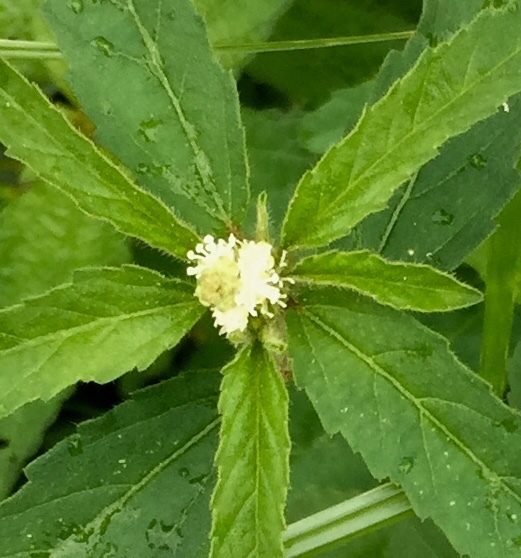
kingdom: Plantae
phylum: Tracheophyta
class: Magnoliopsida
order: Malpighiales
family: Euphorbiaceae
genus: Croton
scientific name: Croton glandulosus
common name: Tropic croton
